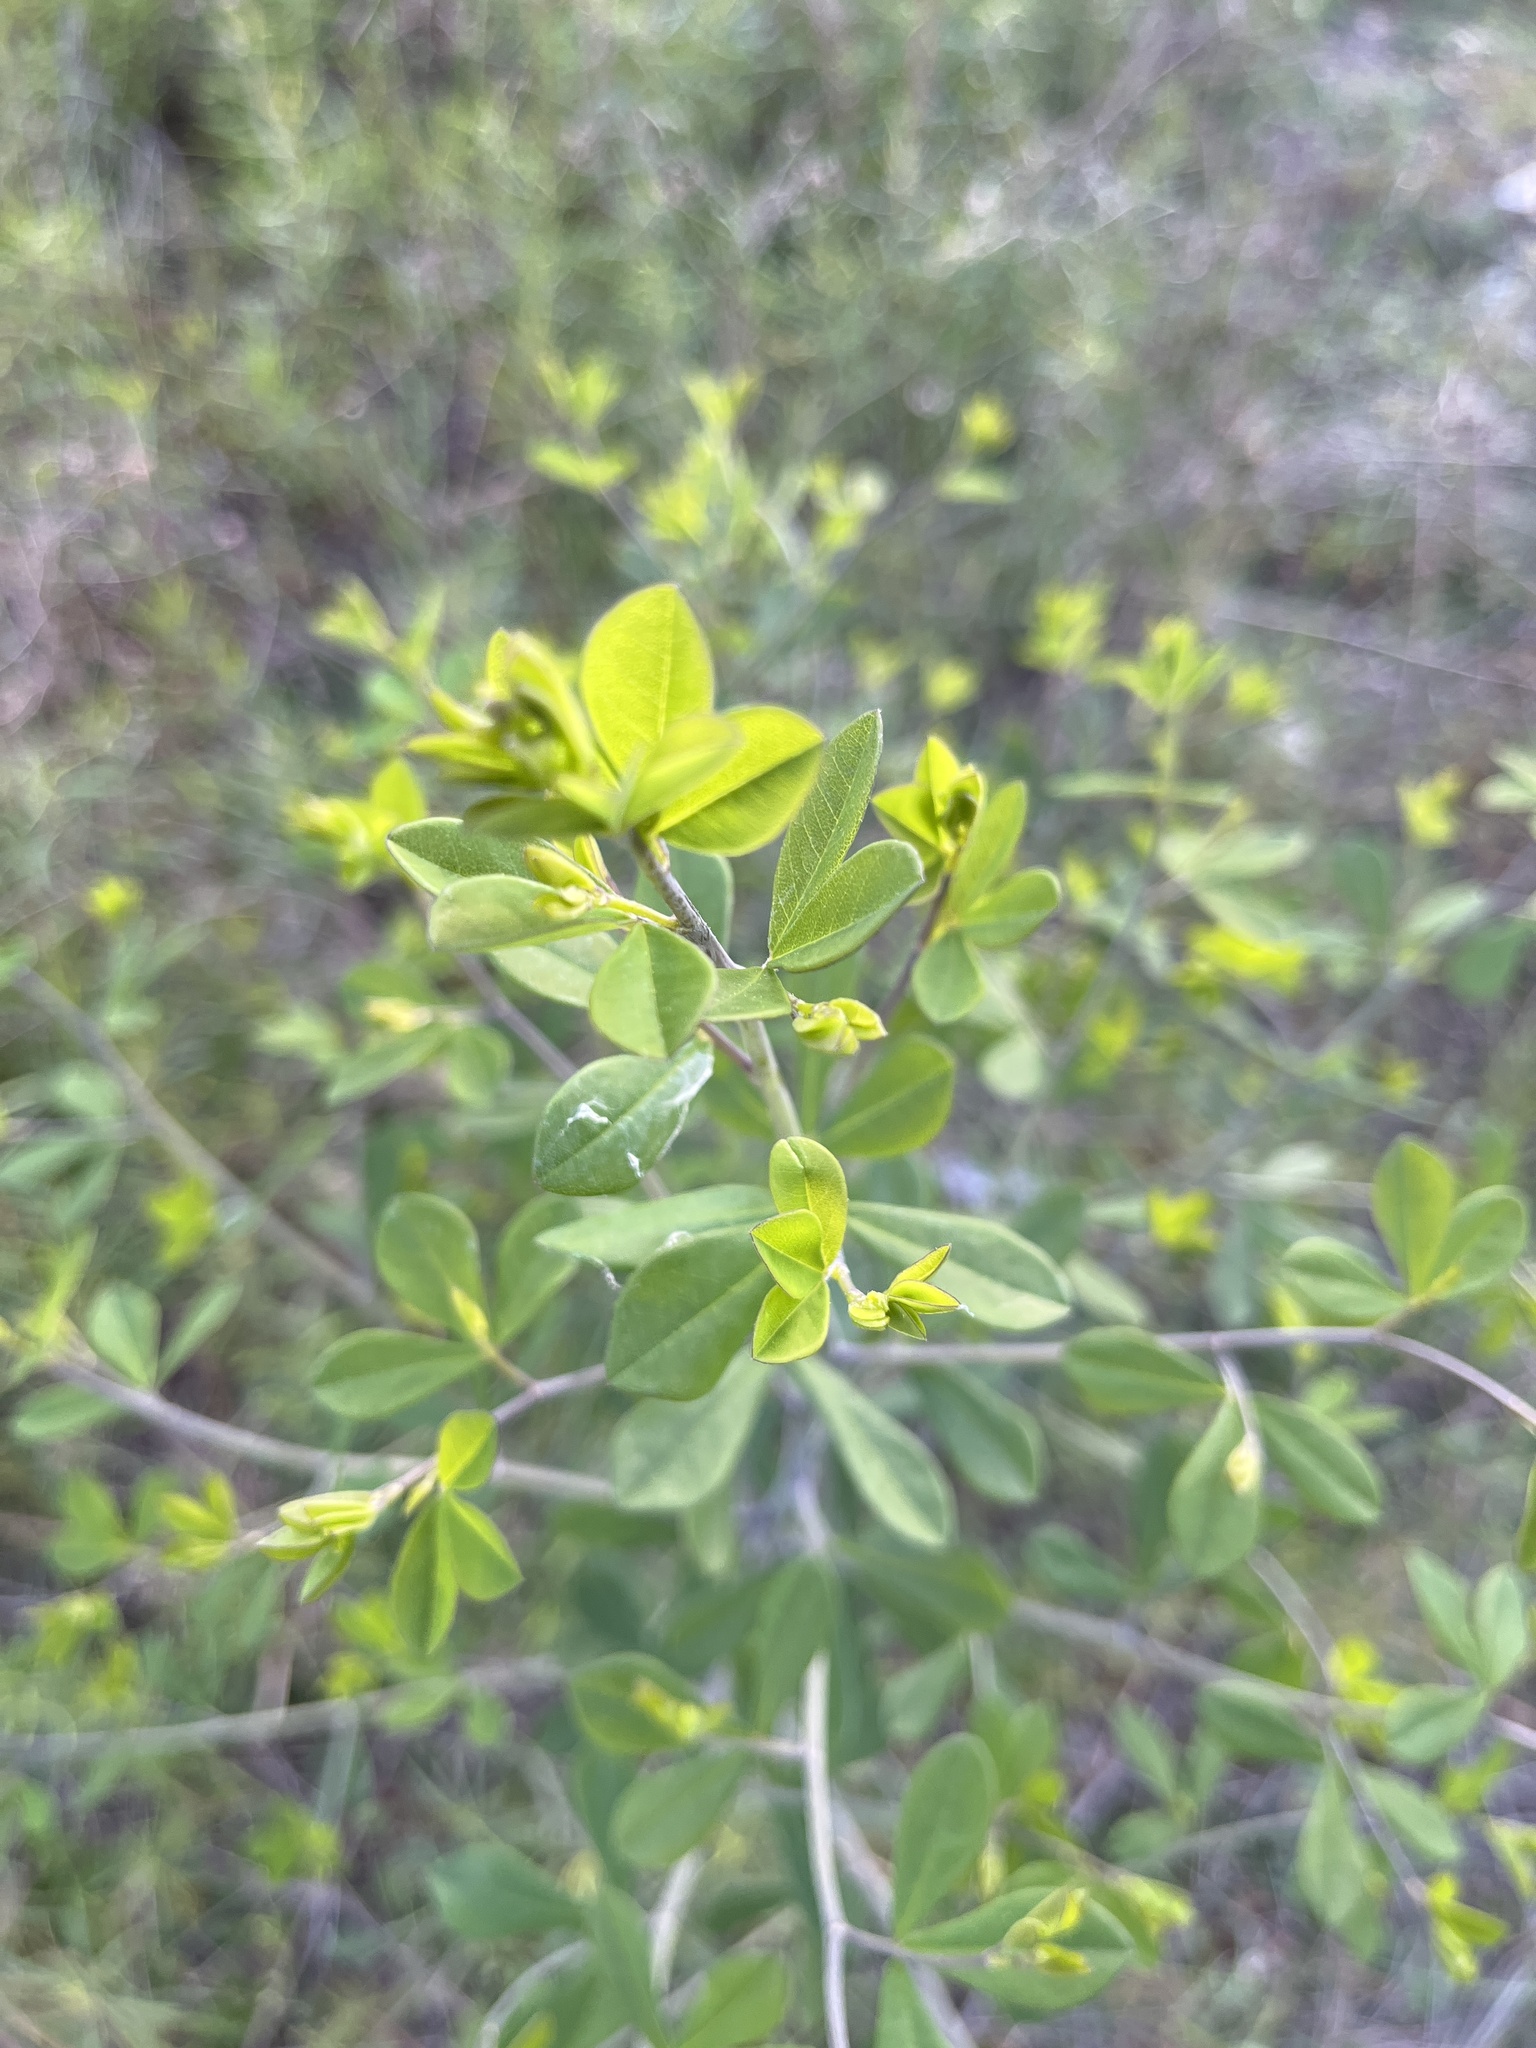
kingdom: Plantae
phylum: Tracheophyta
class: Magnoliopsida
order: Fabales
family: Fabaceae
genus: Baptisia
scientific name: Baptisia tinctoria
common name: Wild indigo
